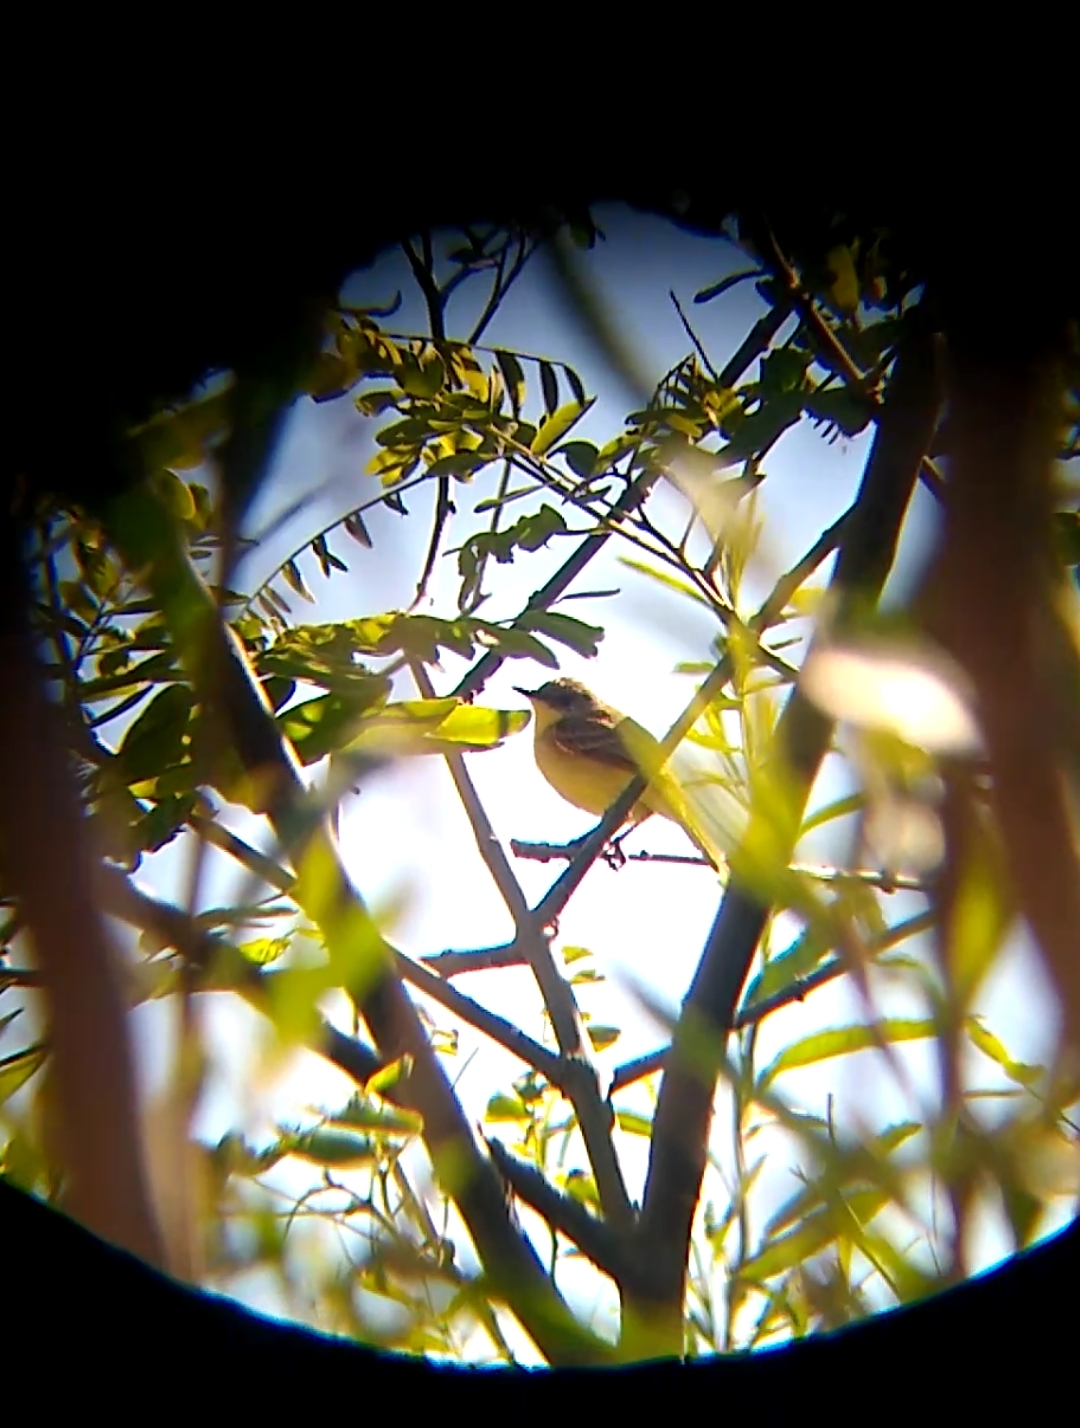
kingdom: Animalia
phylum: Chordata
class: Aves
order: Passeriformes
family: Tyrannidae
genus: Pseudocolopteryx
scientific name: Pseudocolopteryx citreola
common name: Ticking doradito
